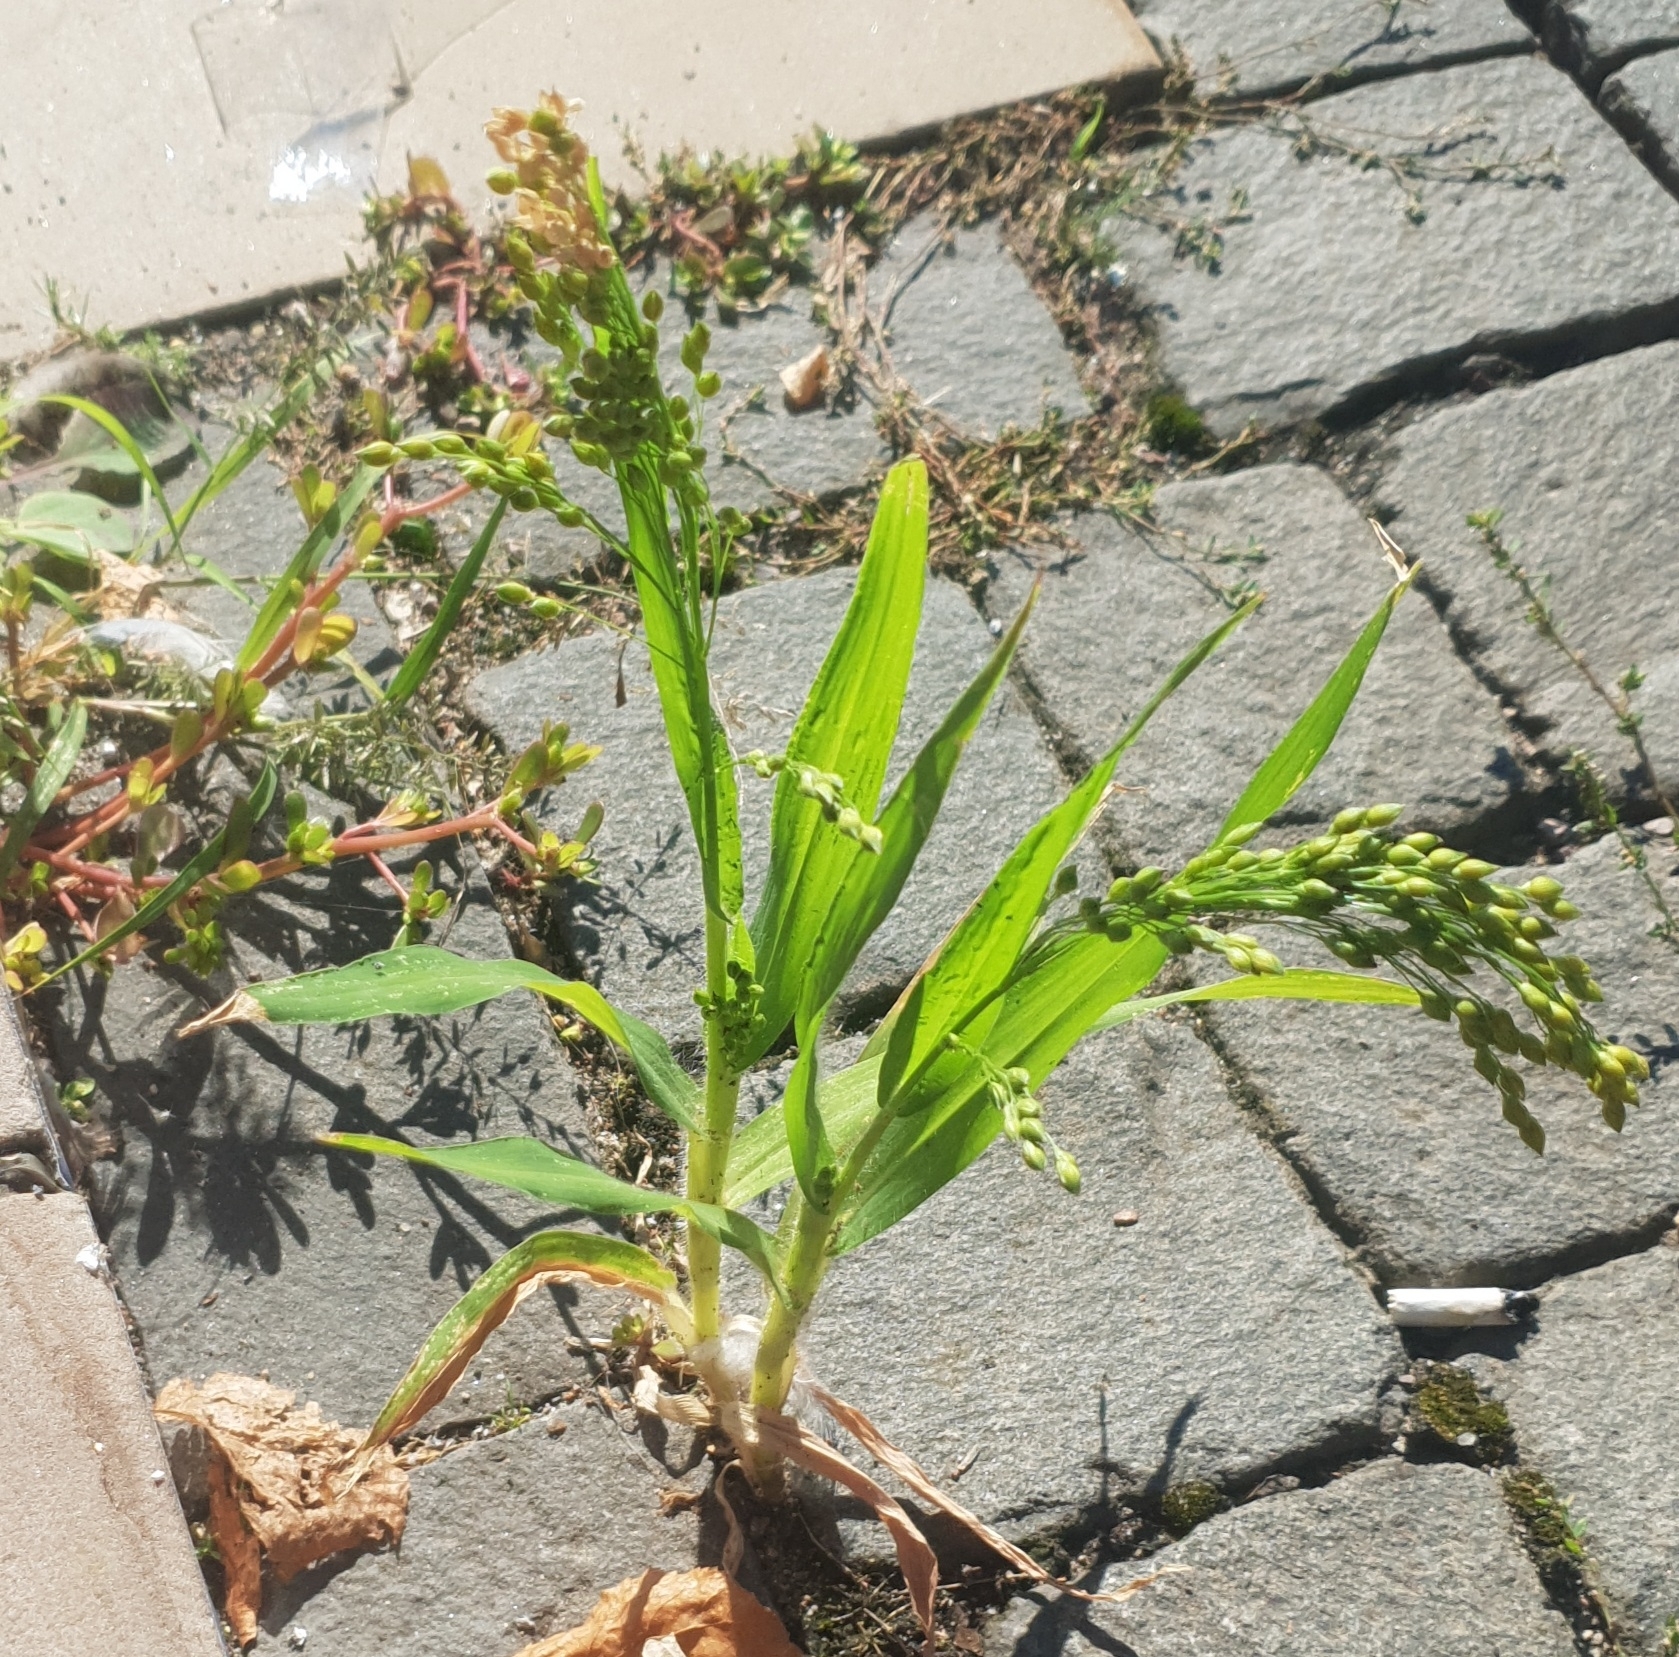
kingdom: Plantae
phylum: Tracheophyta
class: Liliopsida
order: Poales
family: Poaceae
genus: Panicum
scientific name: Panicum miliaceum
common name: Common millet
